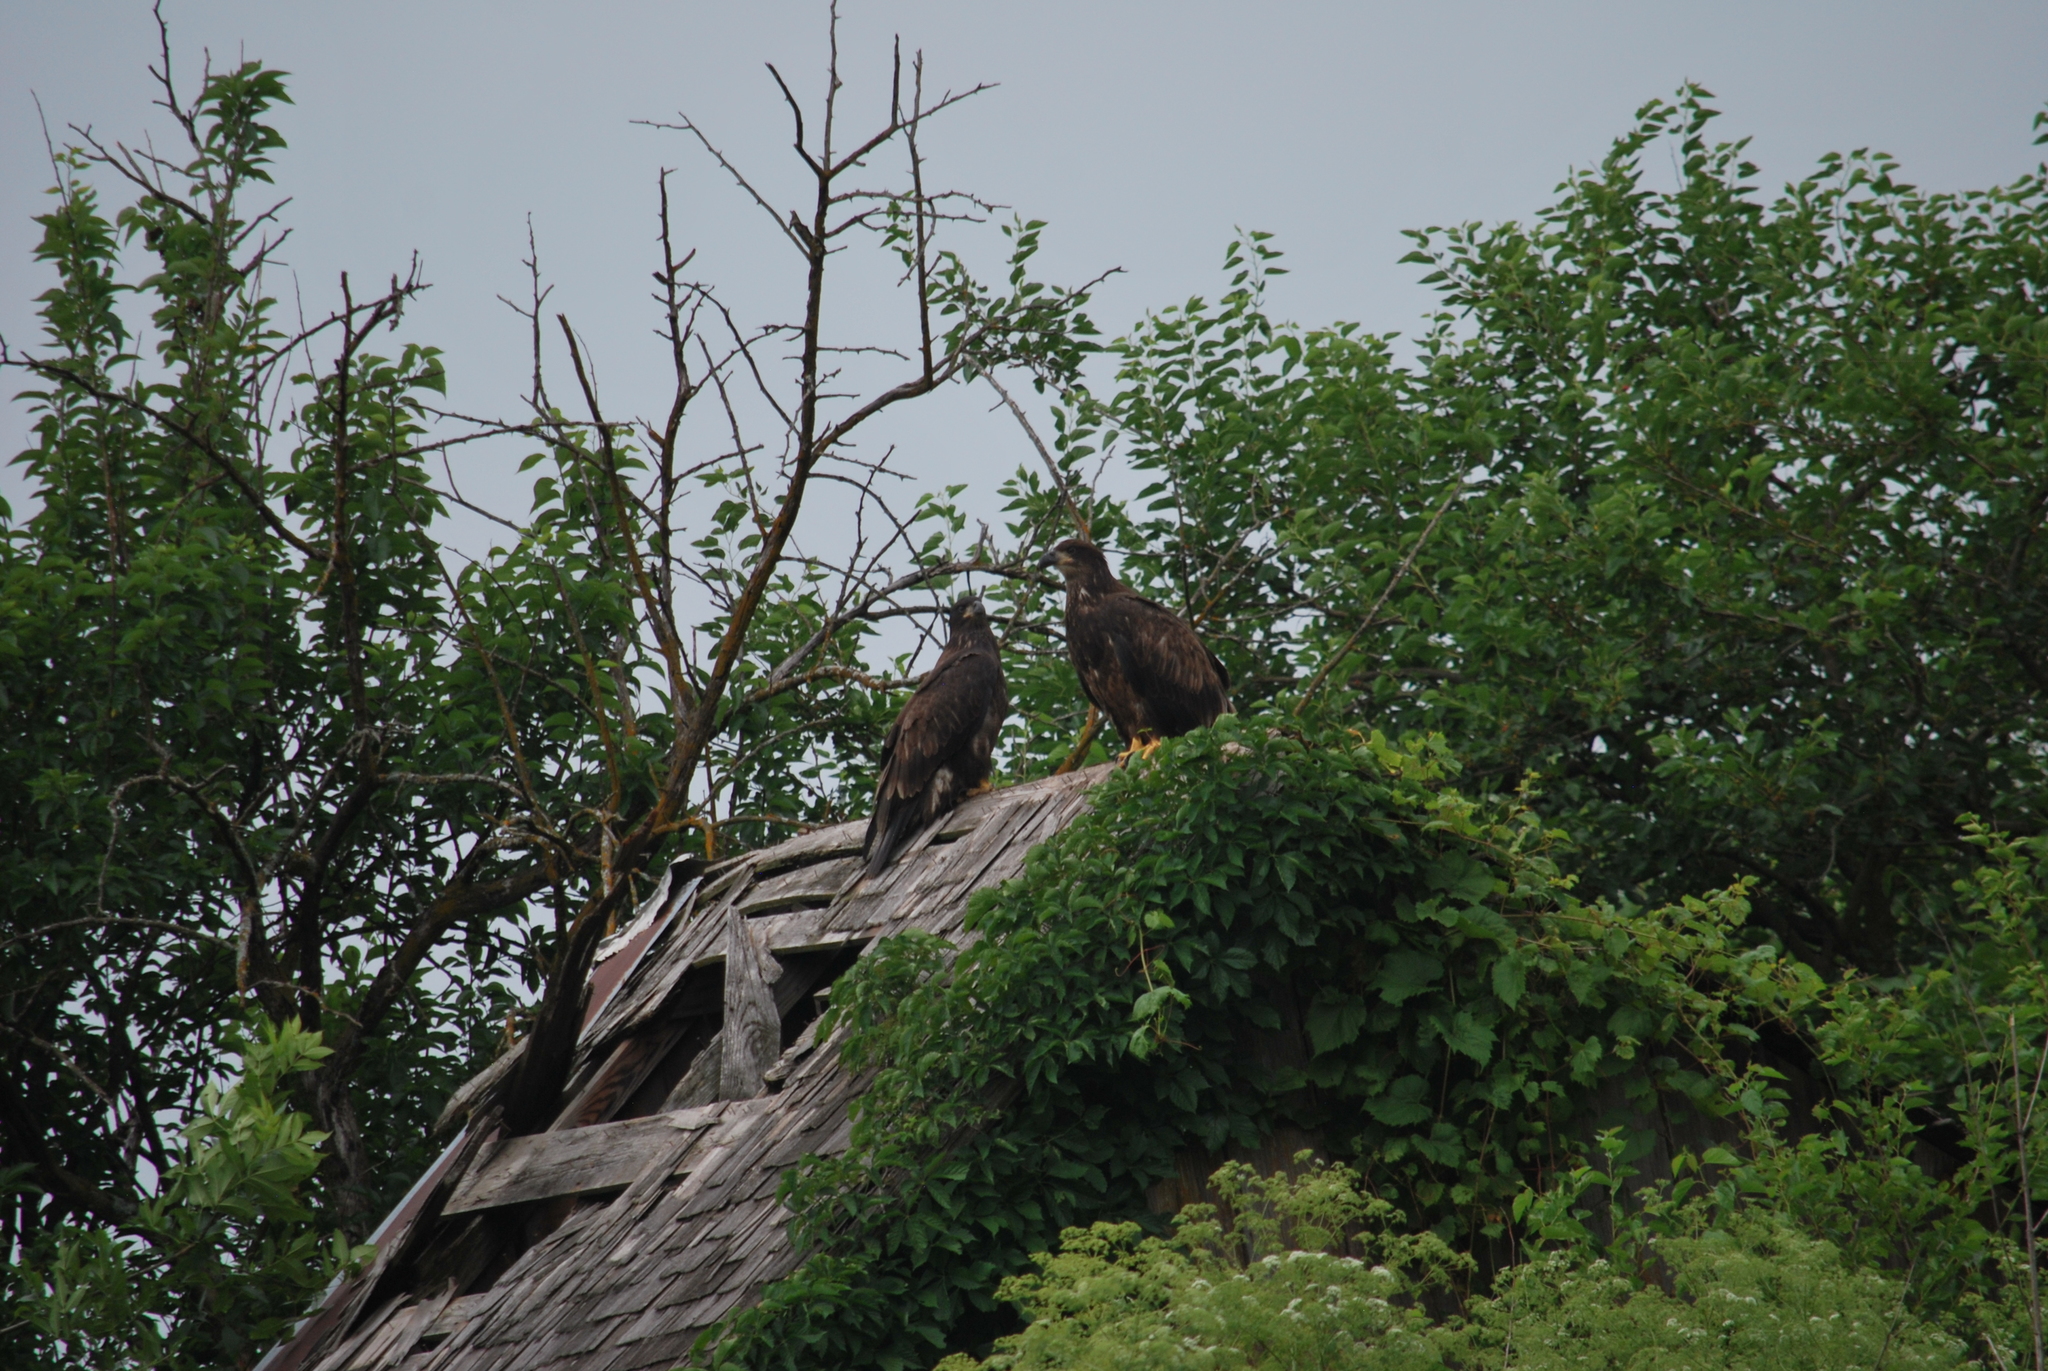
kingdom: Animalia
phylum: Chordata
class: Aves
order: Accipitriformes
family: Accipitridae
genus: Haliaeetus
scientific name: Haliaeetus leucocephalus
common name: Bald eagle
